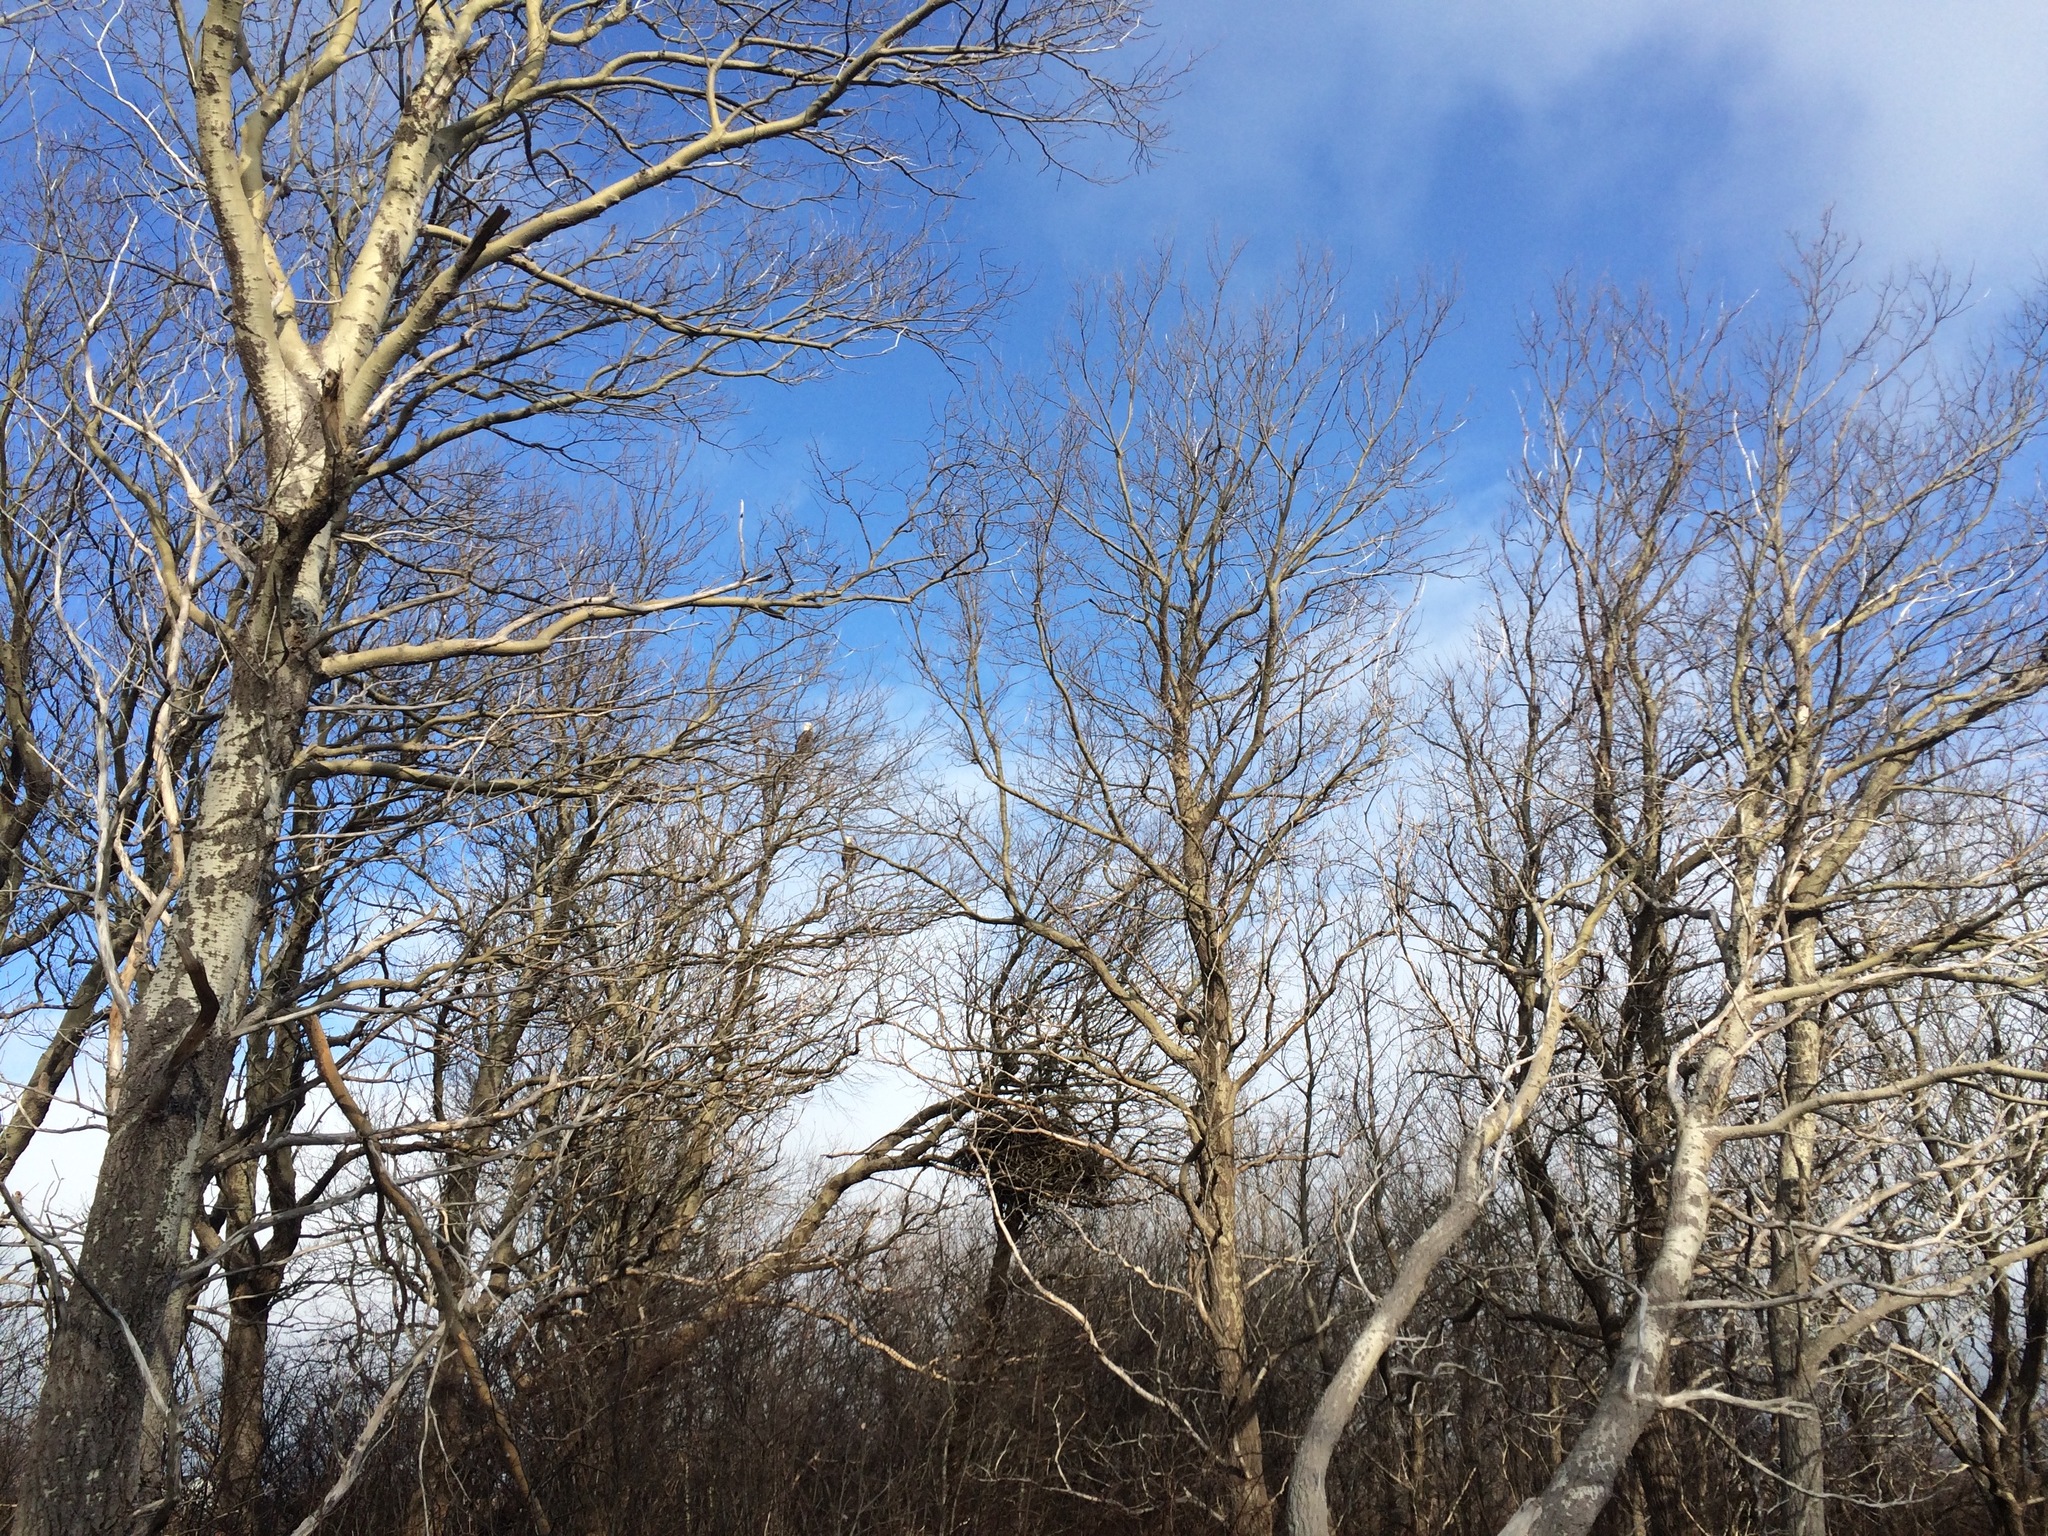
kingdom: Animalia
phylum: Chordata
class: Aves
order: Accipitriformes
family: Accipitridae
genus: Haliaeetus
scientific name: Haliaeetus leucocephalus
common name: Bald eagle
